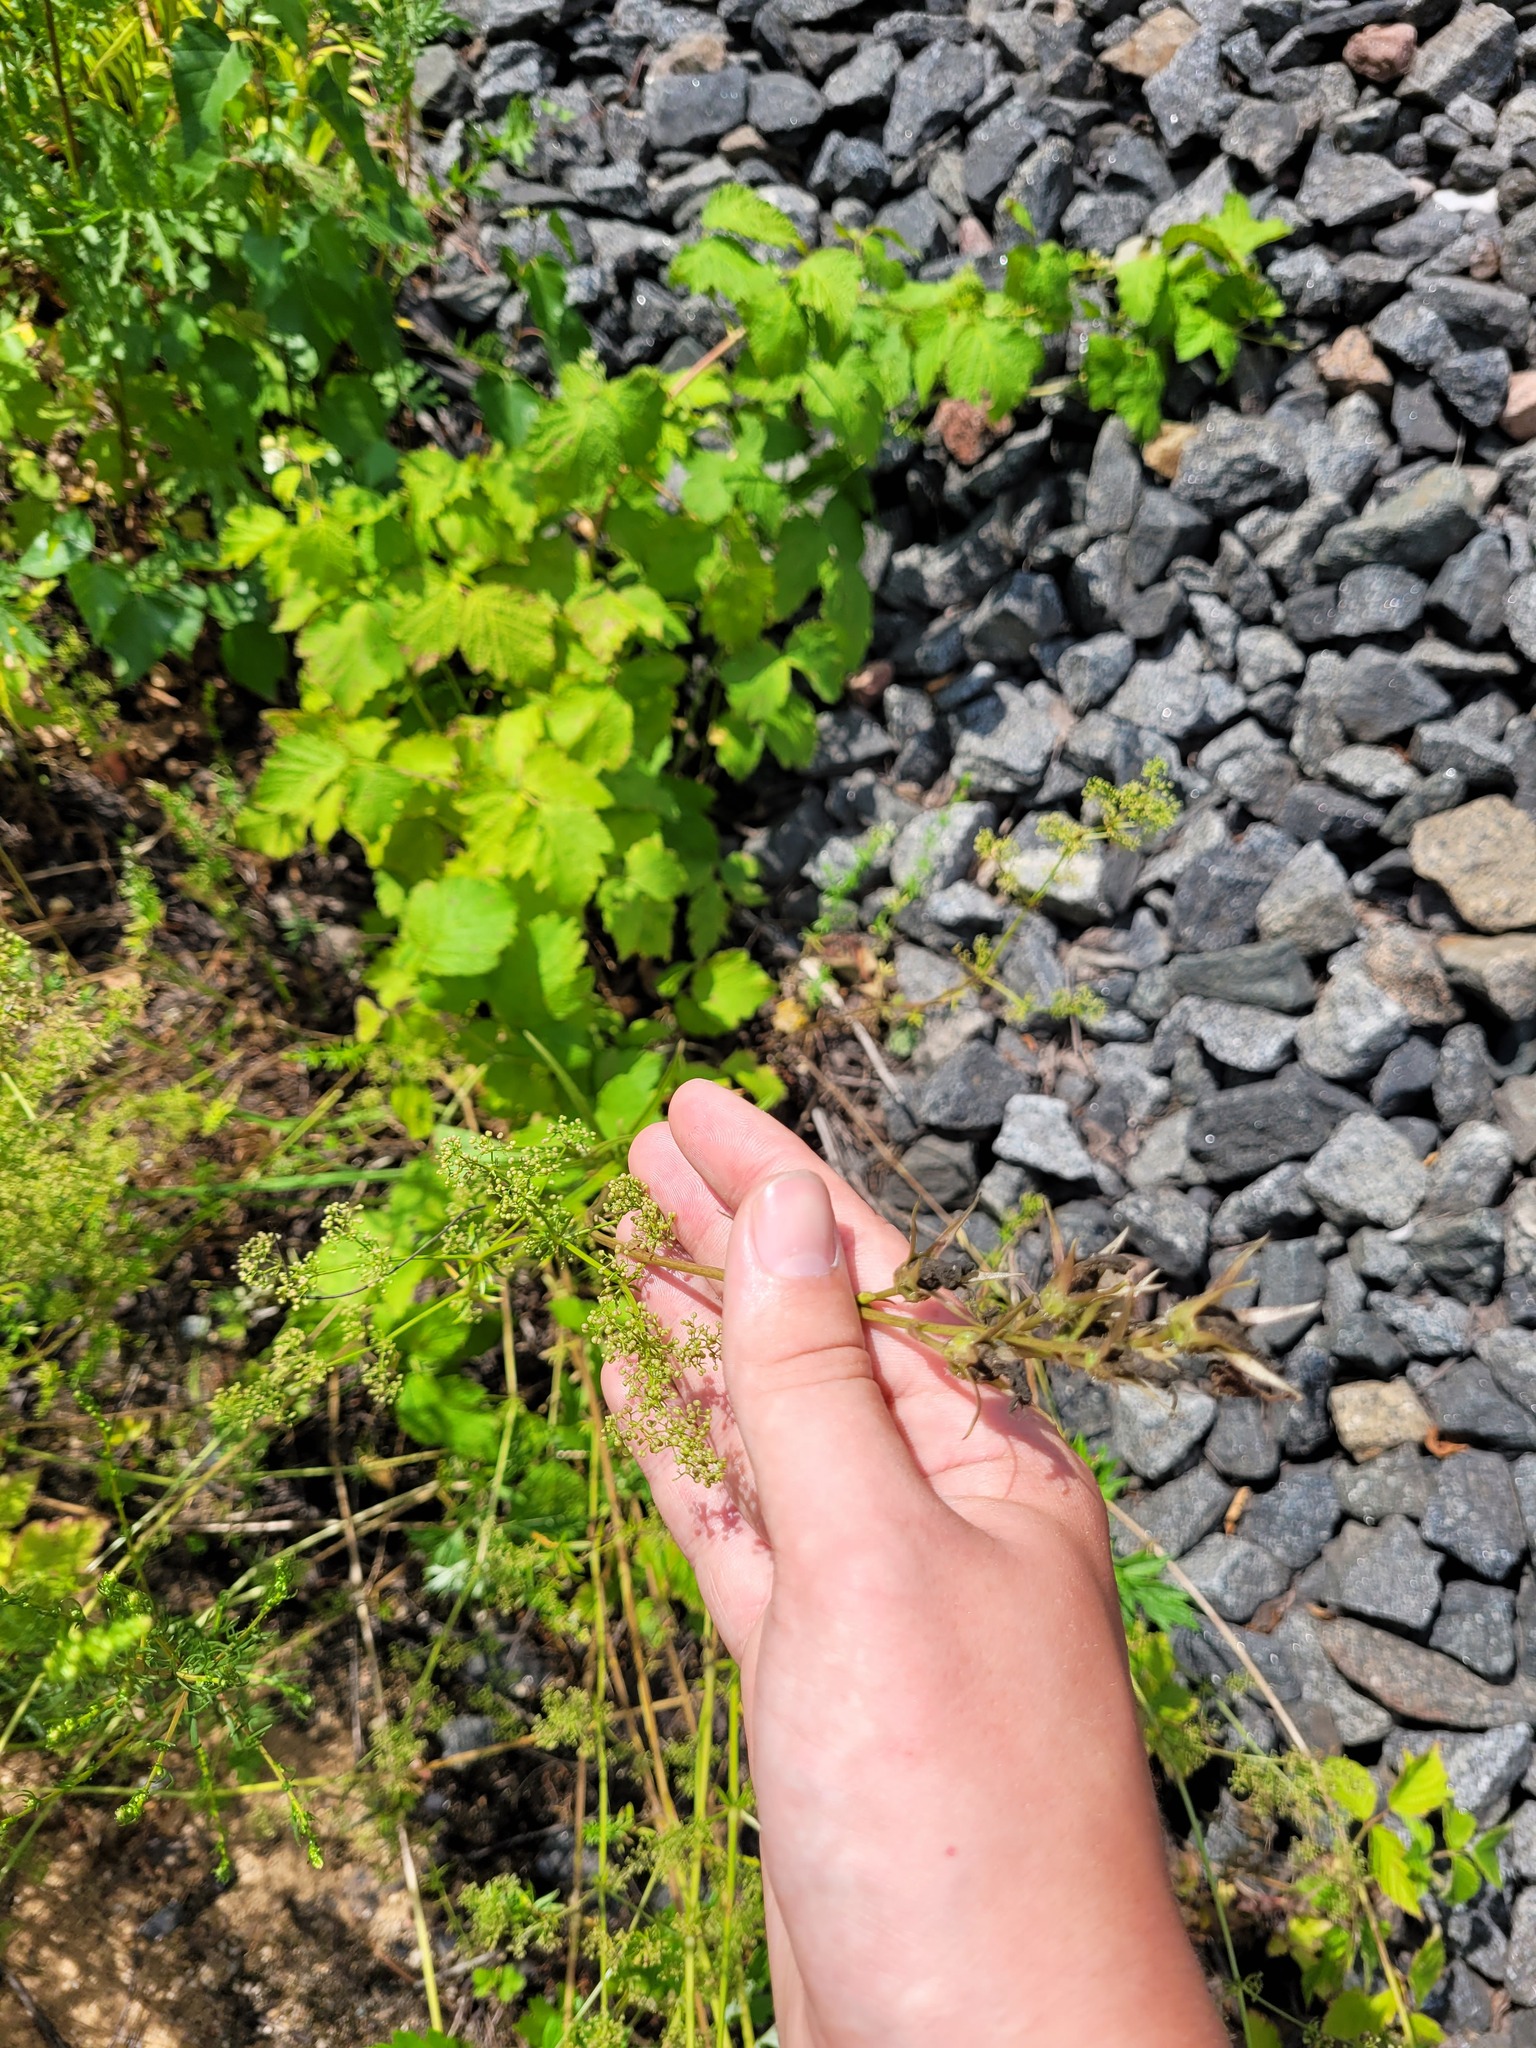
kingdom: Plantae
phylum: Tracheophyta
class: Magnoliopsida
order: Asterales
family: Campanulaceae
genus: Campanula
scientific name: Campanula persicifolia
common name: Peach-leaved bellflower
